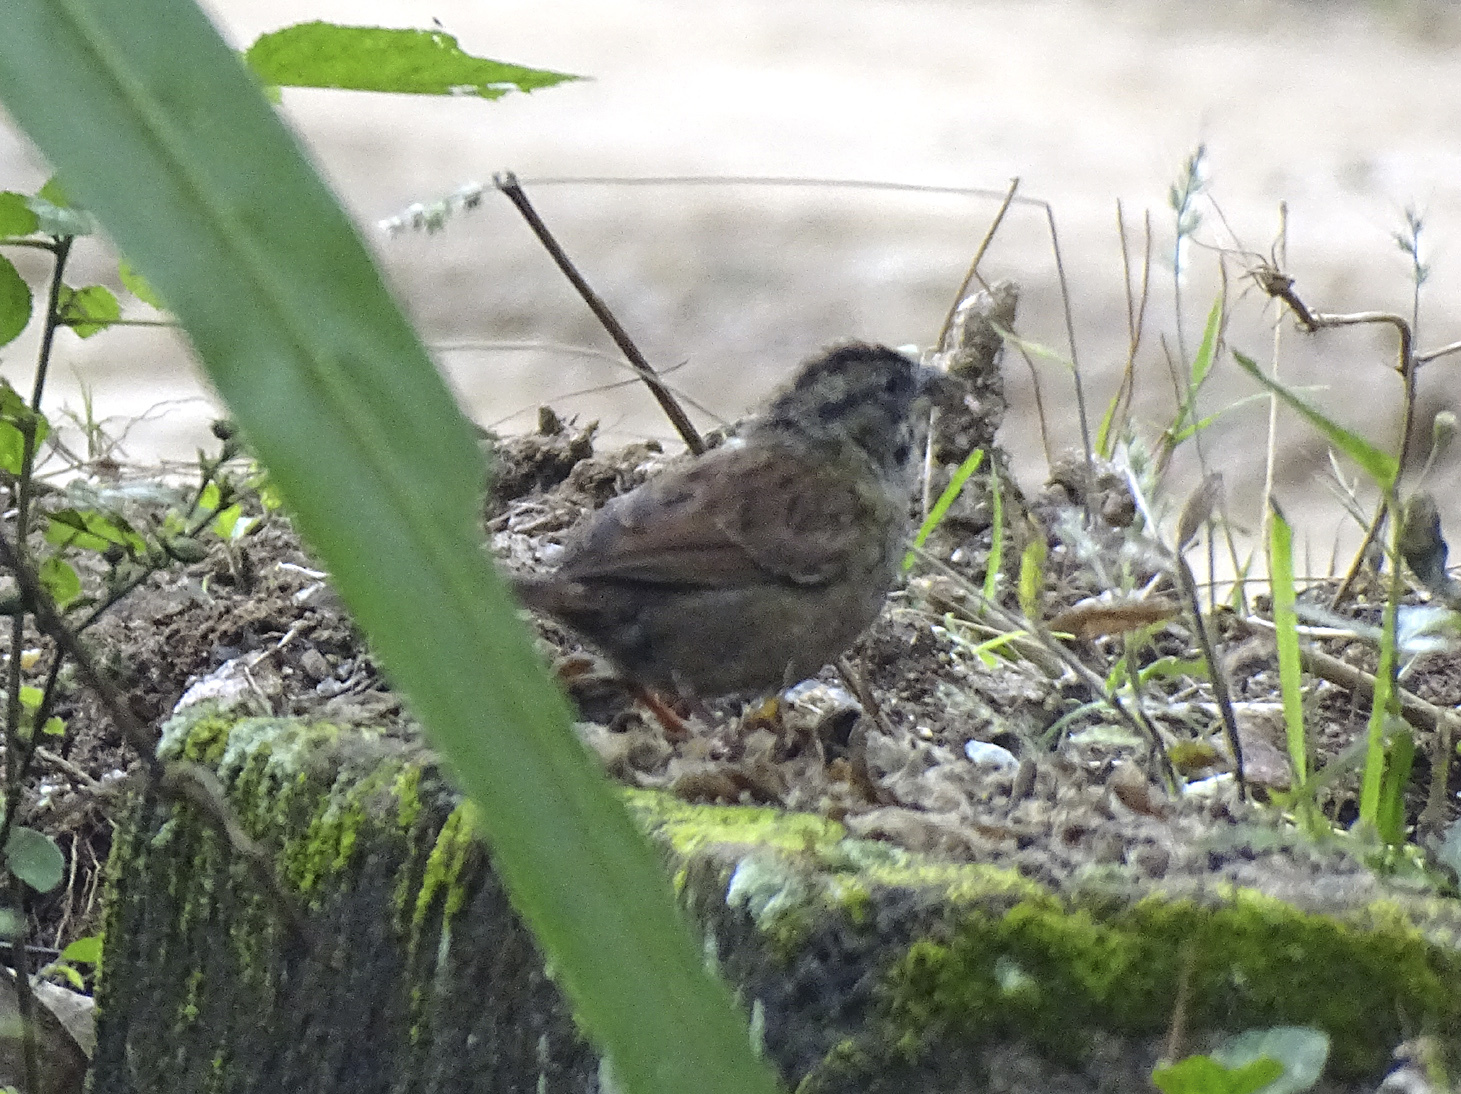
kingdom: Animalia
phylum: Chordata
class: Aves
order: Passeriformes
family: Passerellidae
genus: Aimophila
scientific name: Aimophila rufescens
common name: Rusty sparrow
